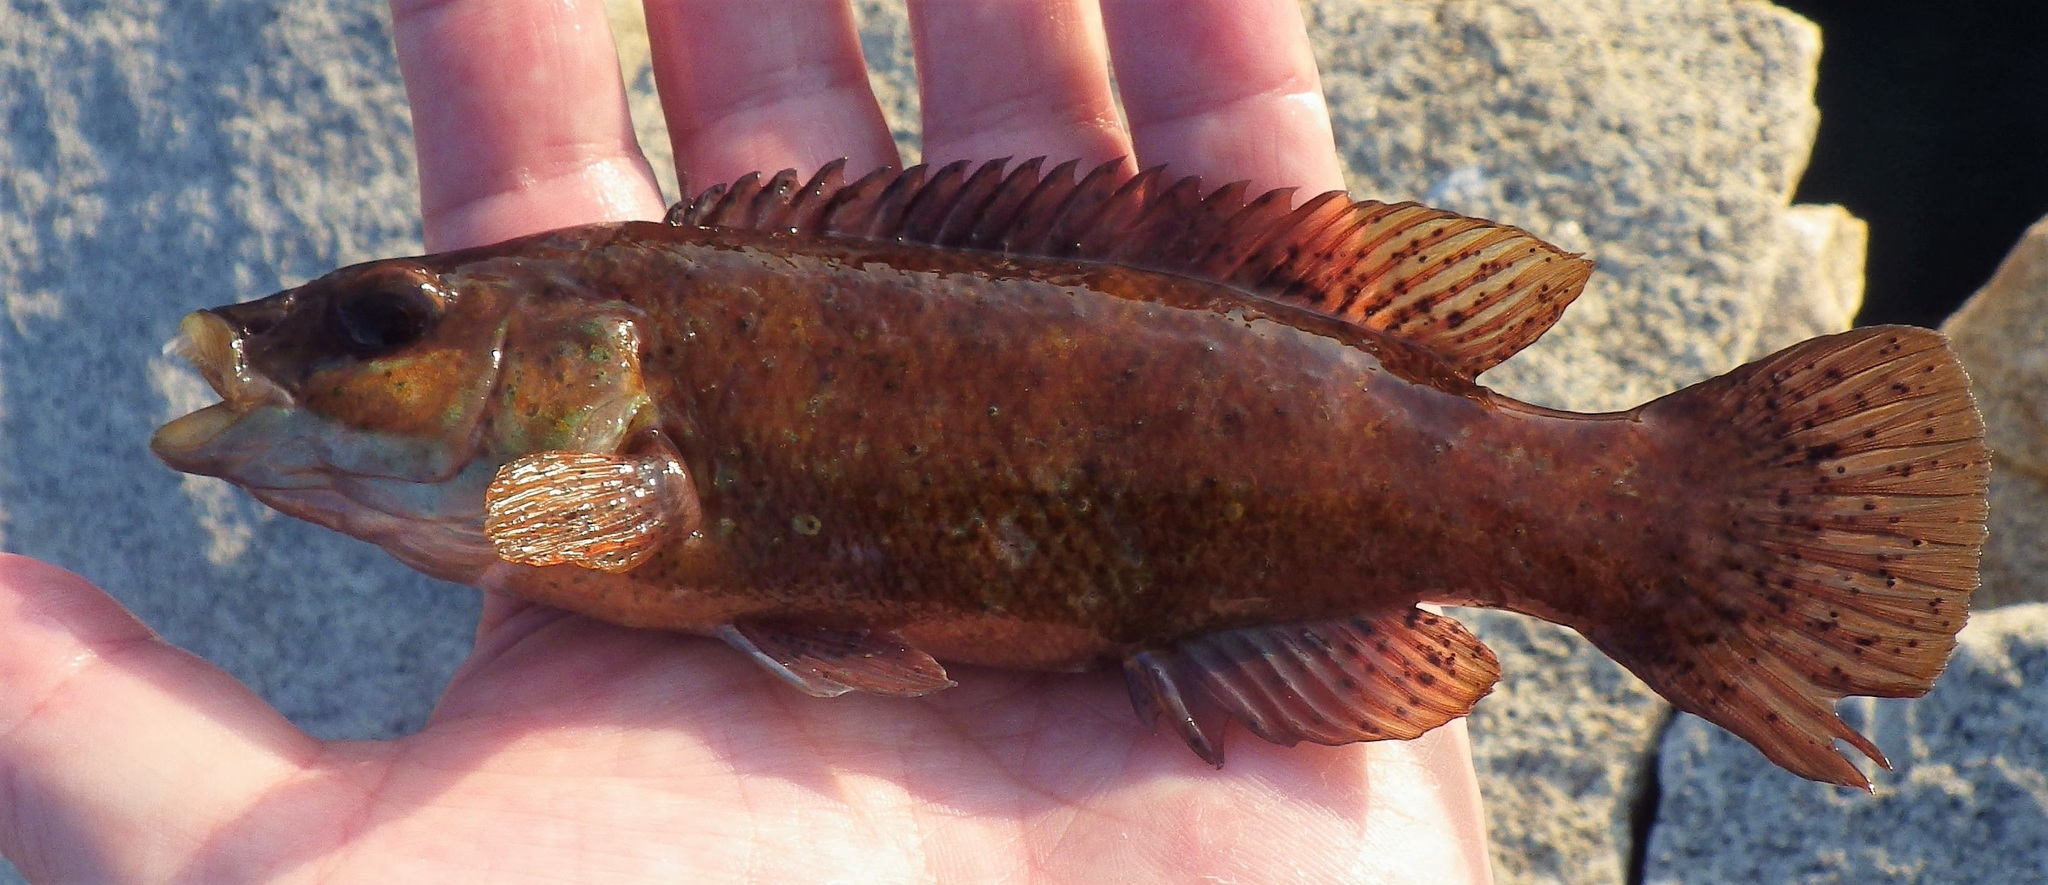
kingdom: Animalia
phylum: Chordata
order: Perciformes
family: Labridae
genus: Tautogolabrus
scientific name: Tautogolabrus adspersus
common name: Cunner
